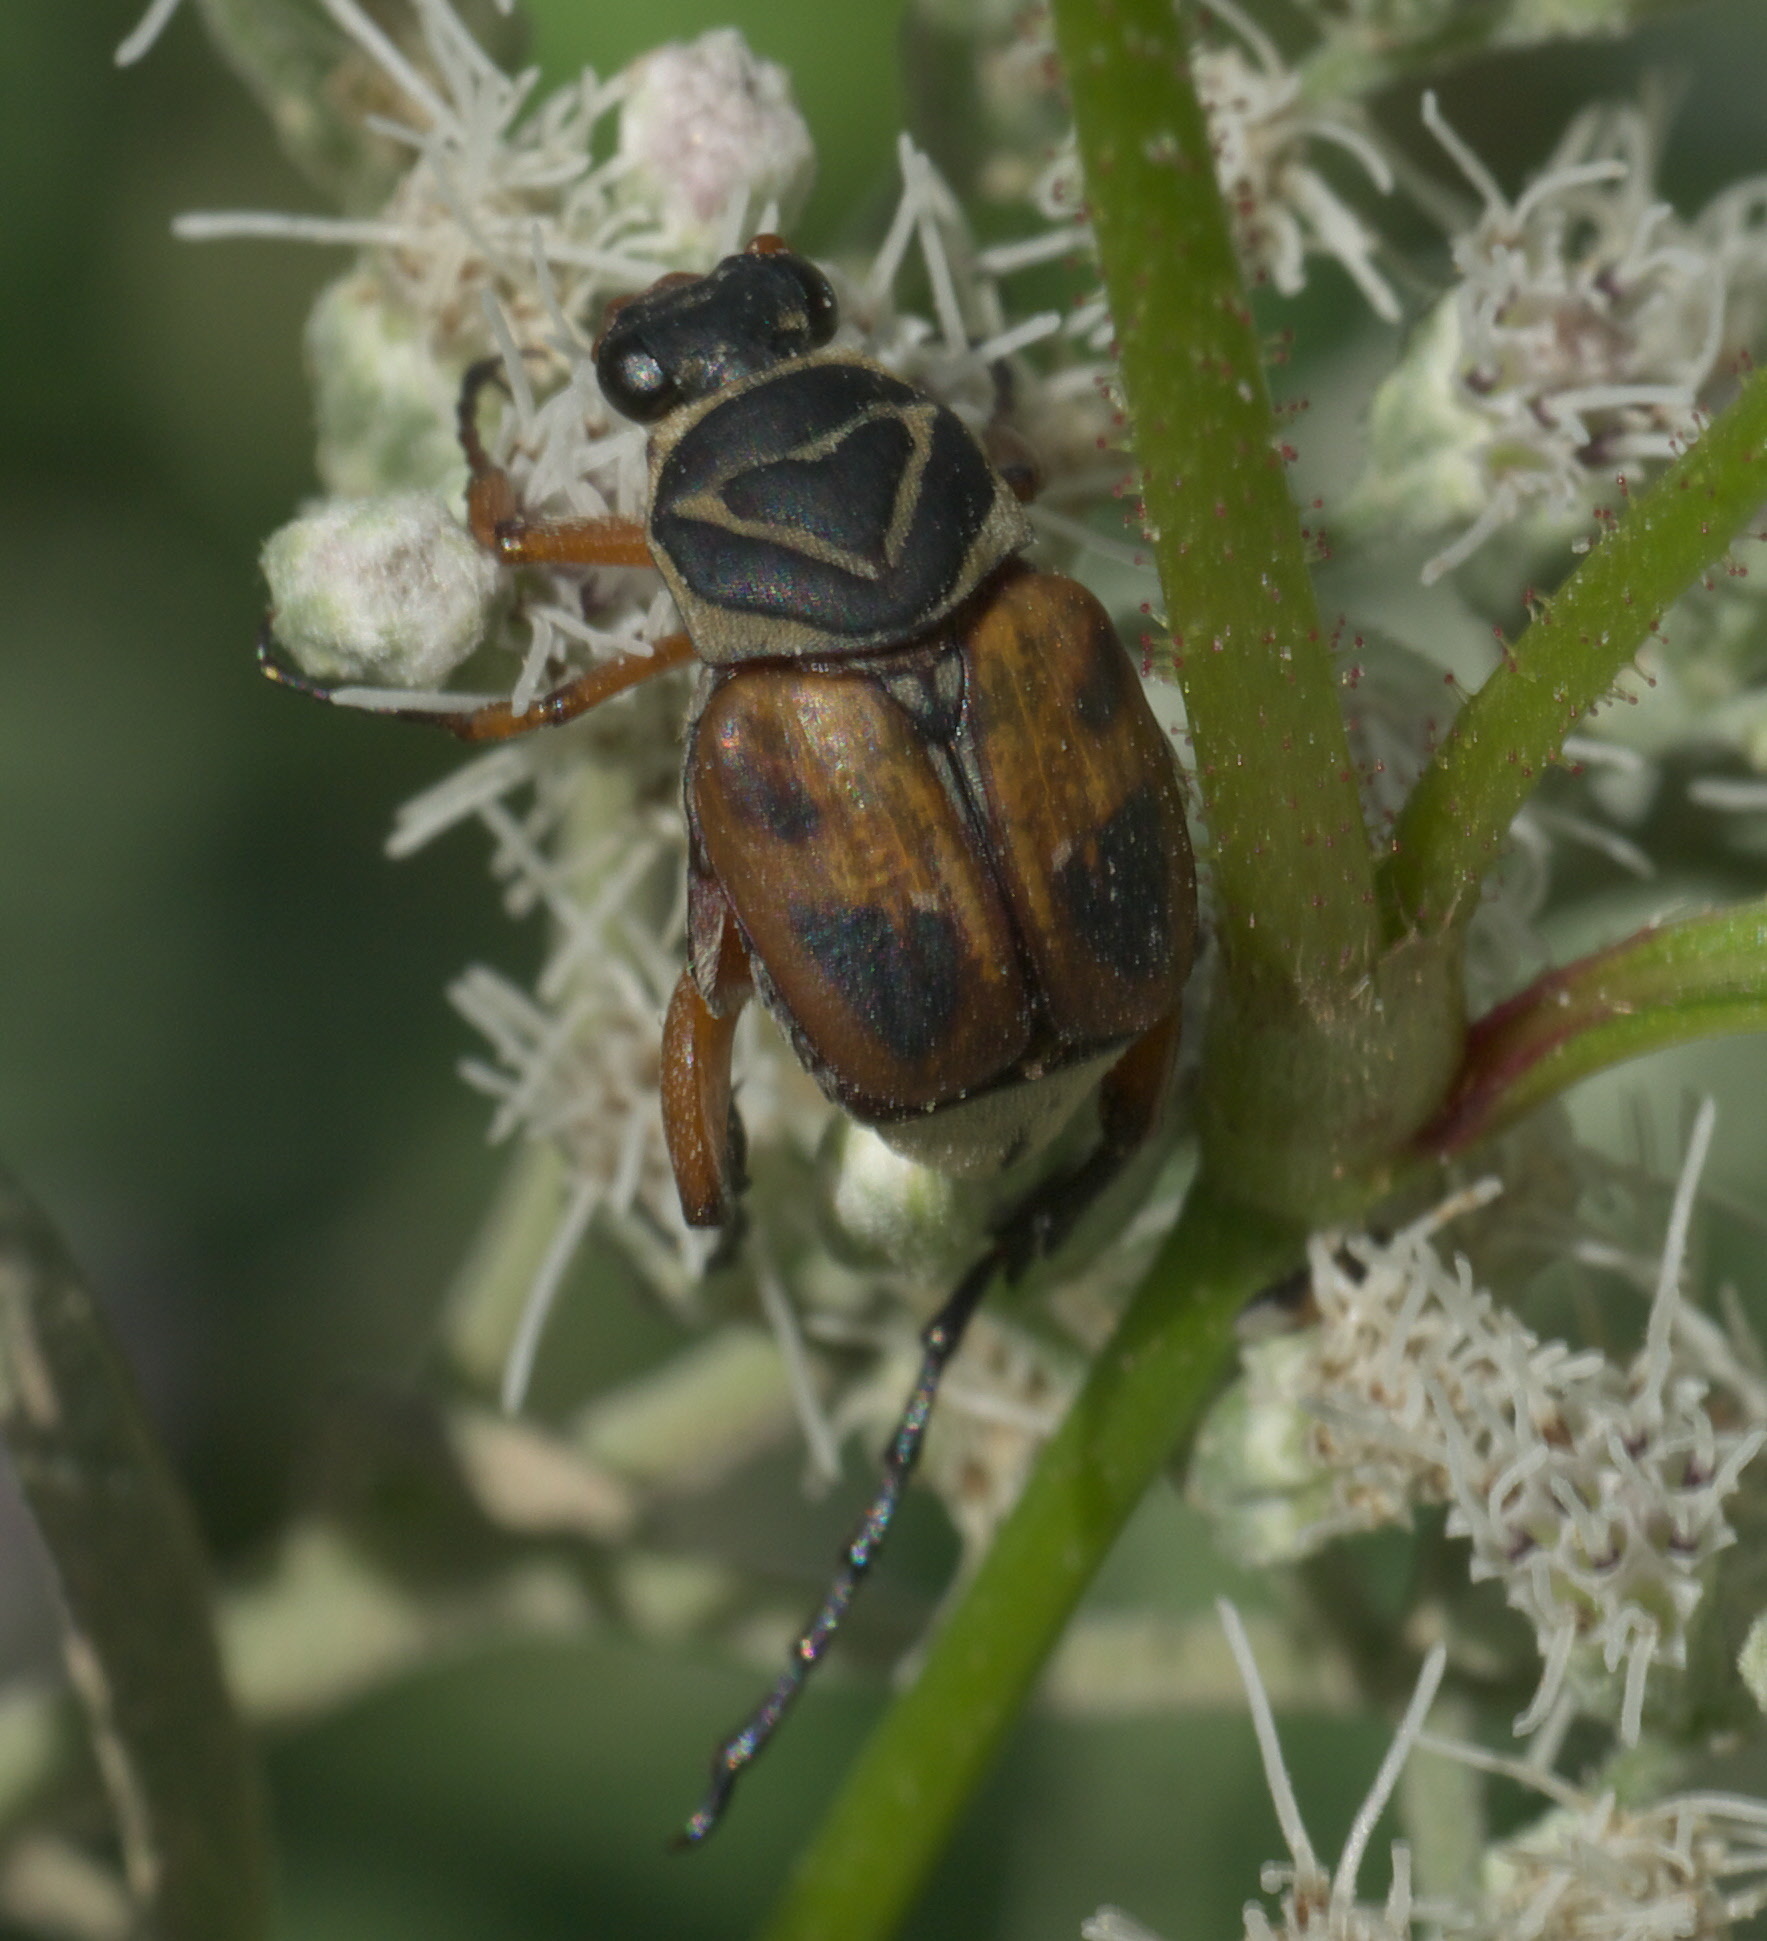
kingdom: Animalia
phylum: Arthropoda
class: Insecta
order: Coleoptera
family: Scarabaeidae
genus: Trigonopeltastes
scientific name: Trigonopeltastes delta
